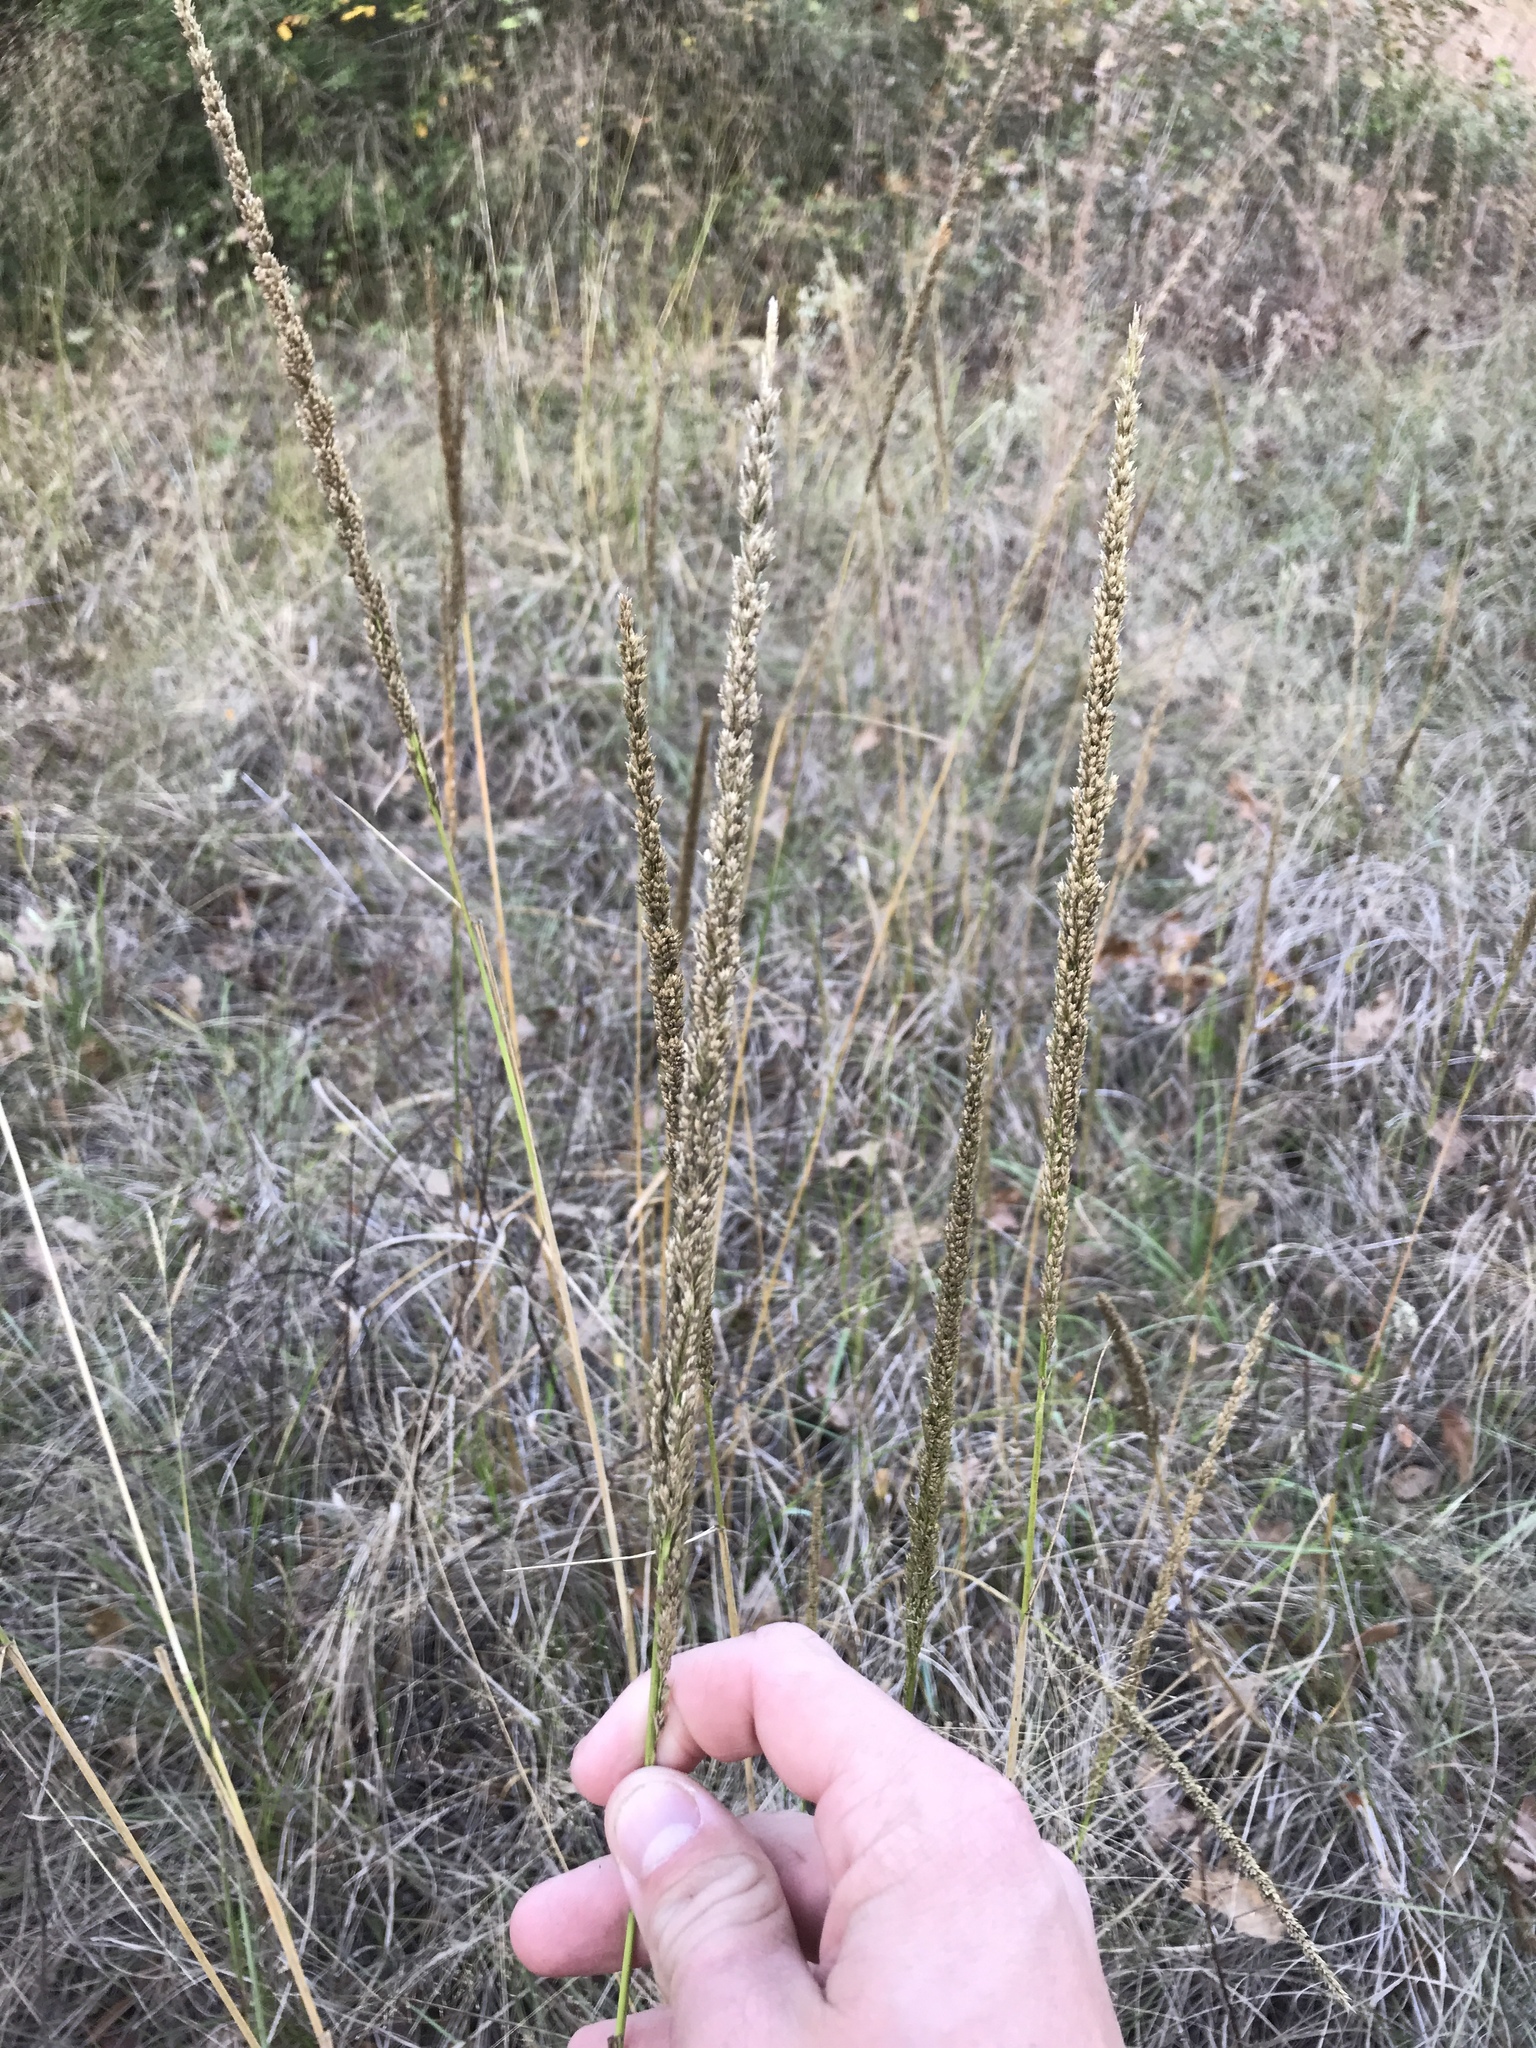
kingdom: Plantae
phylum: Tracheophyta
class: Liliopsida
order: Poales
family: Poaceae
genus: Tridens
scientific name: Tridens strictus
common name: Long-spike tridens
